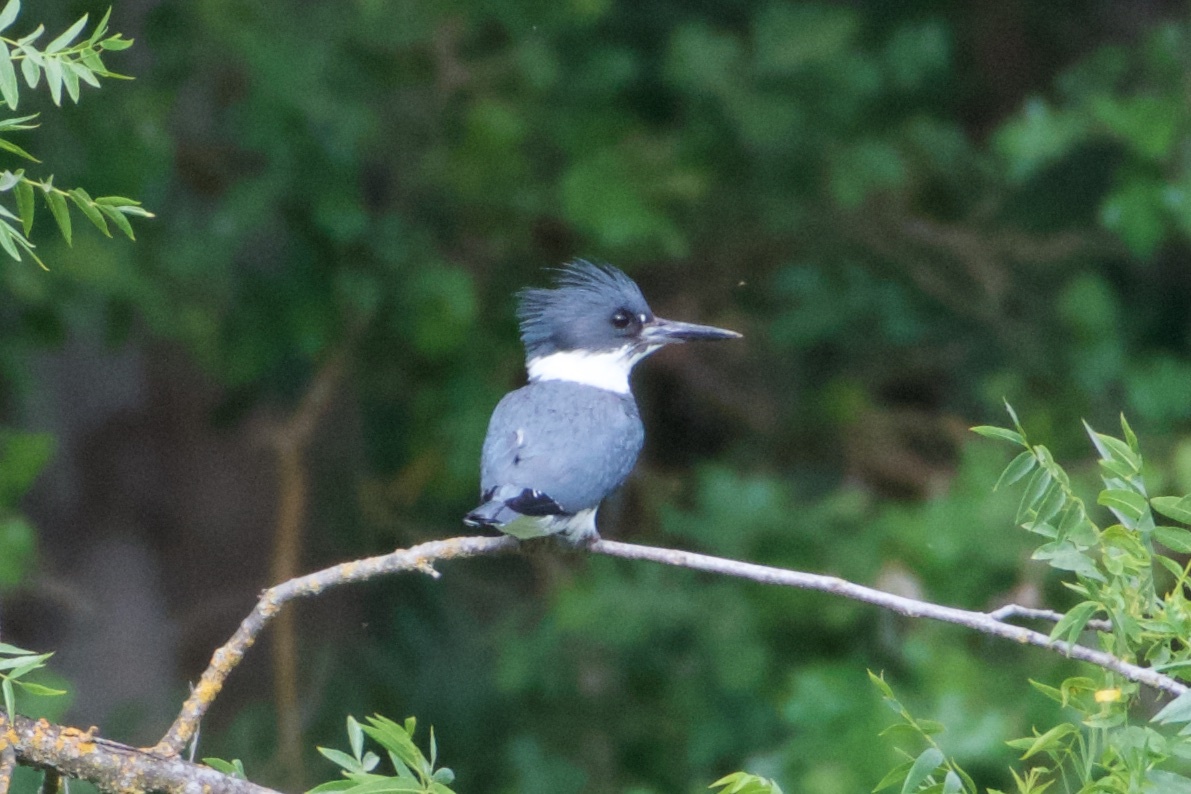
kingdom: Animalia
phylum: Chordata
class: Aves
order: Coraciiformes
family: Alcedinidae
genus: Megaceryle
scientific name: Megaceryle alcyon
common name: Belted kingfisher
